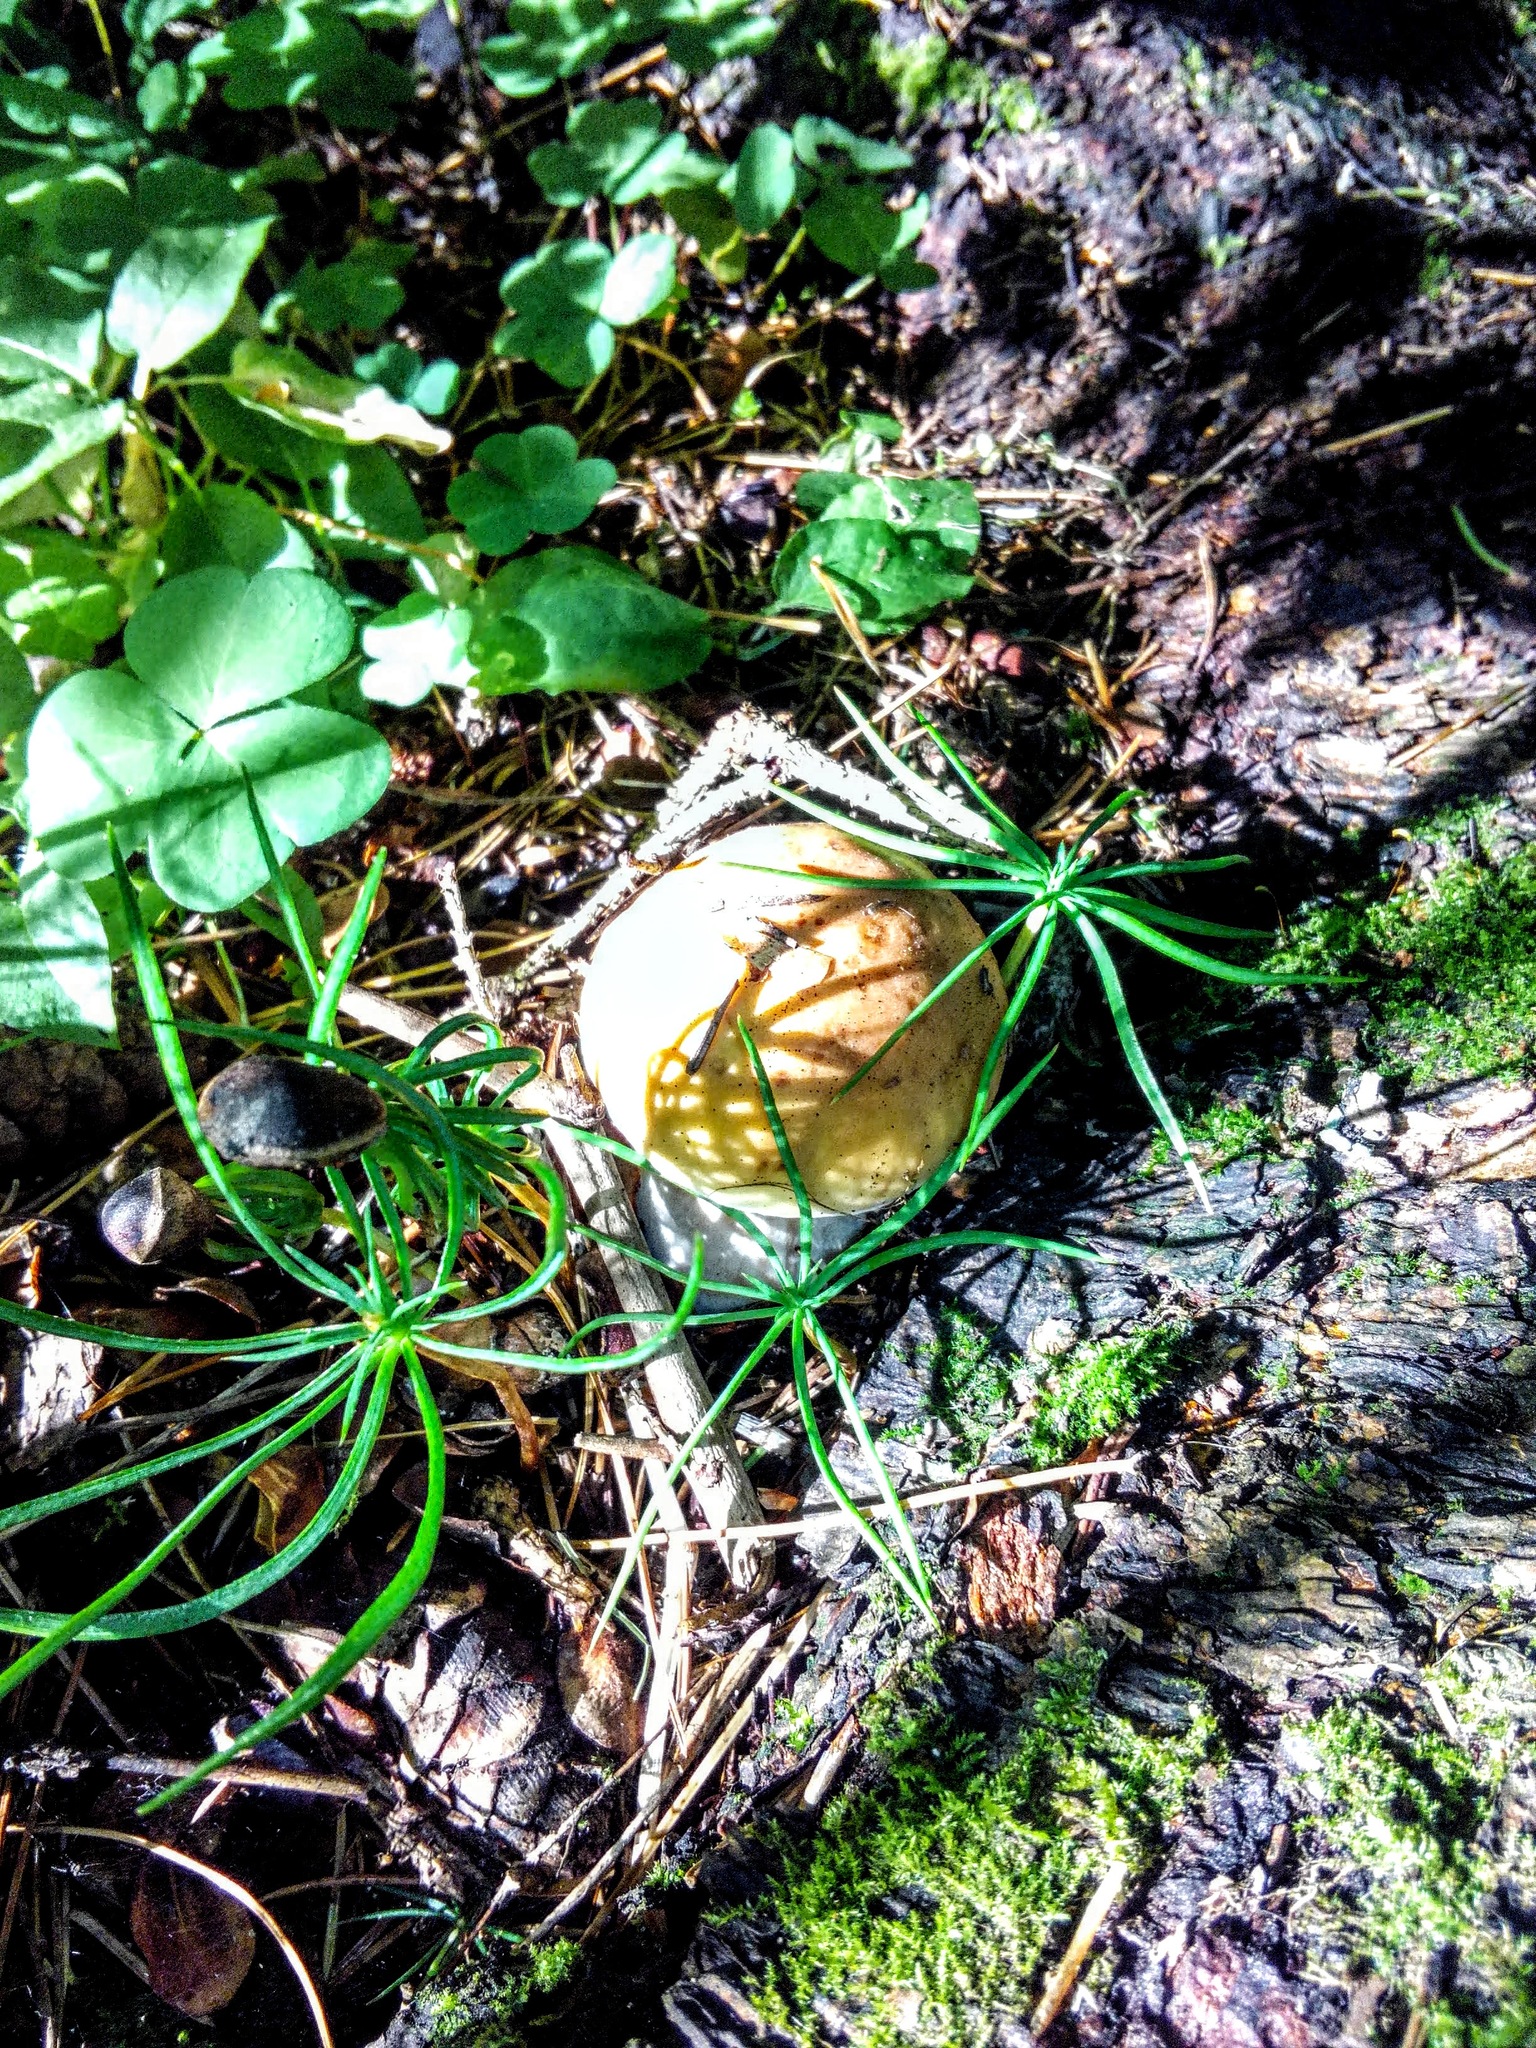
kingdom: Fungi
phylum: Basidiomycota
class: Agaricomycetes
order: Boletales
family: Boletaceae
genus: Boletus
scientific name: Boletus edulis
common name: Cep
